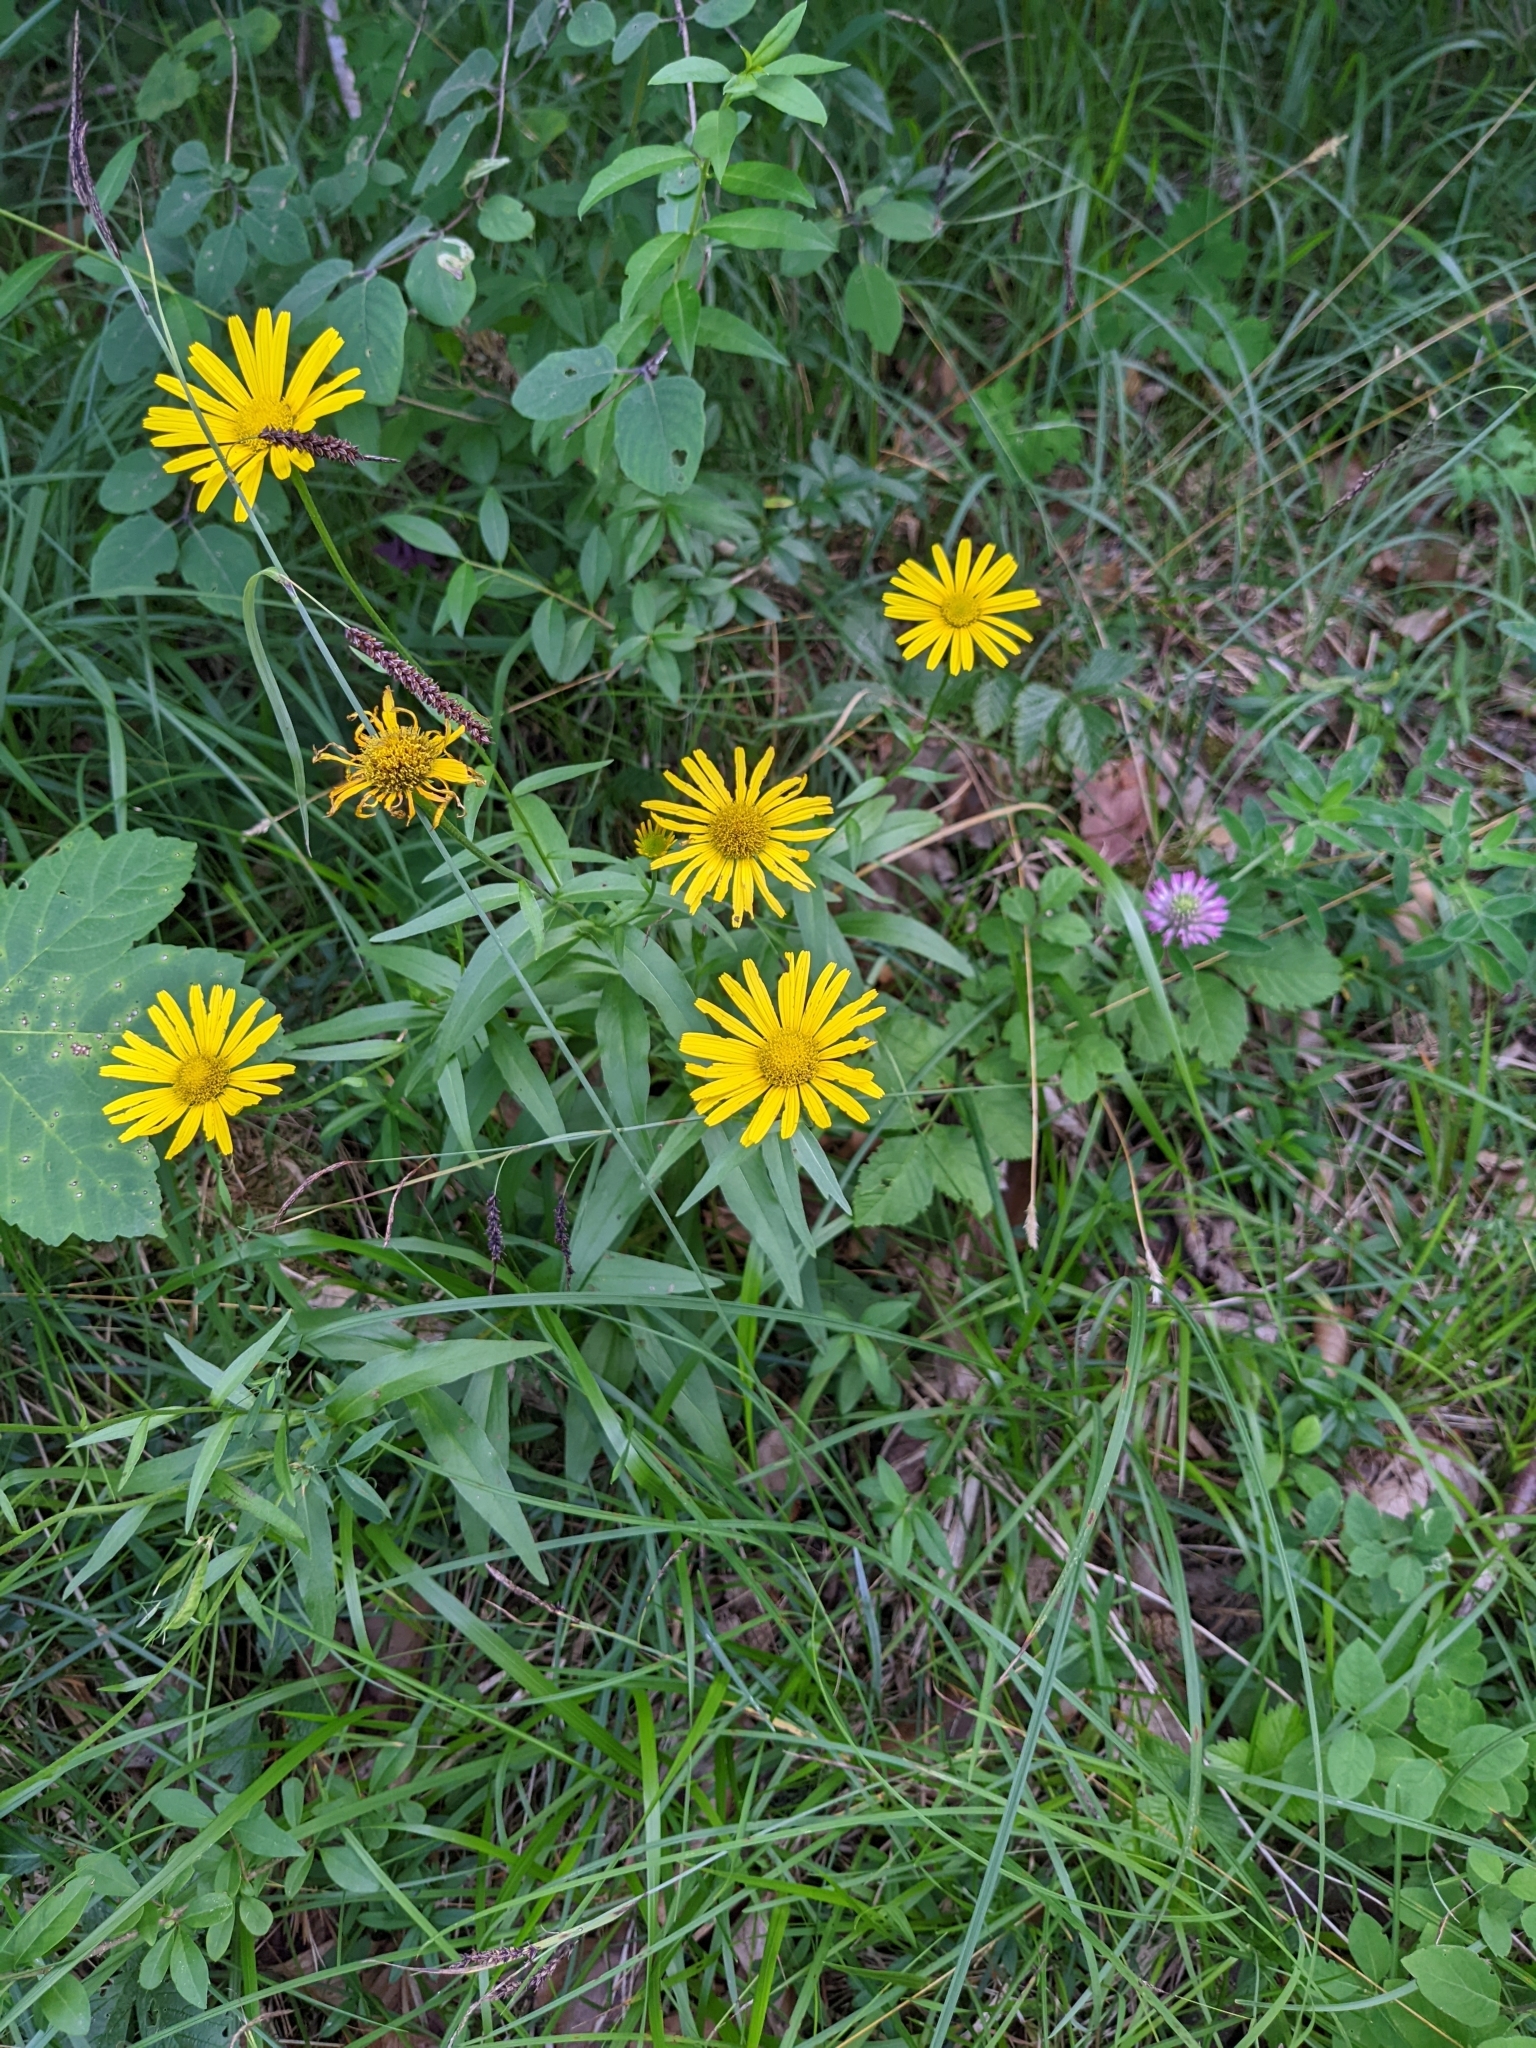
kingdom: Plantae
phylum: Tracheophyta
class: Magnoliopsida
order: Asterales
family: Asteraceae
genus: Buphthalmum
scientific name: Buphthalmum salicifolium
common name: Willow-leaved yellow-oxeye
